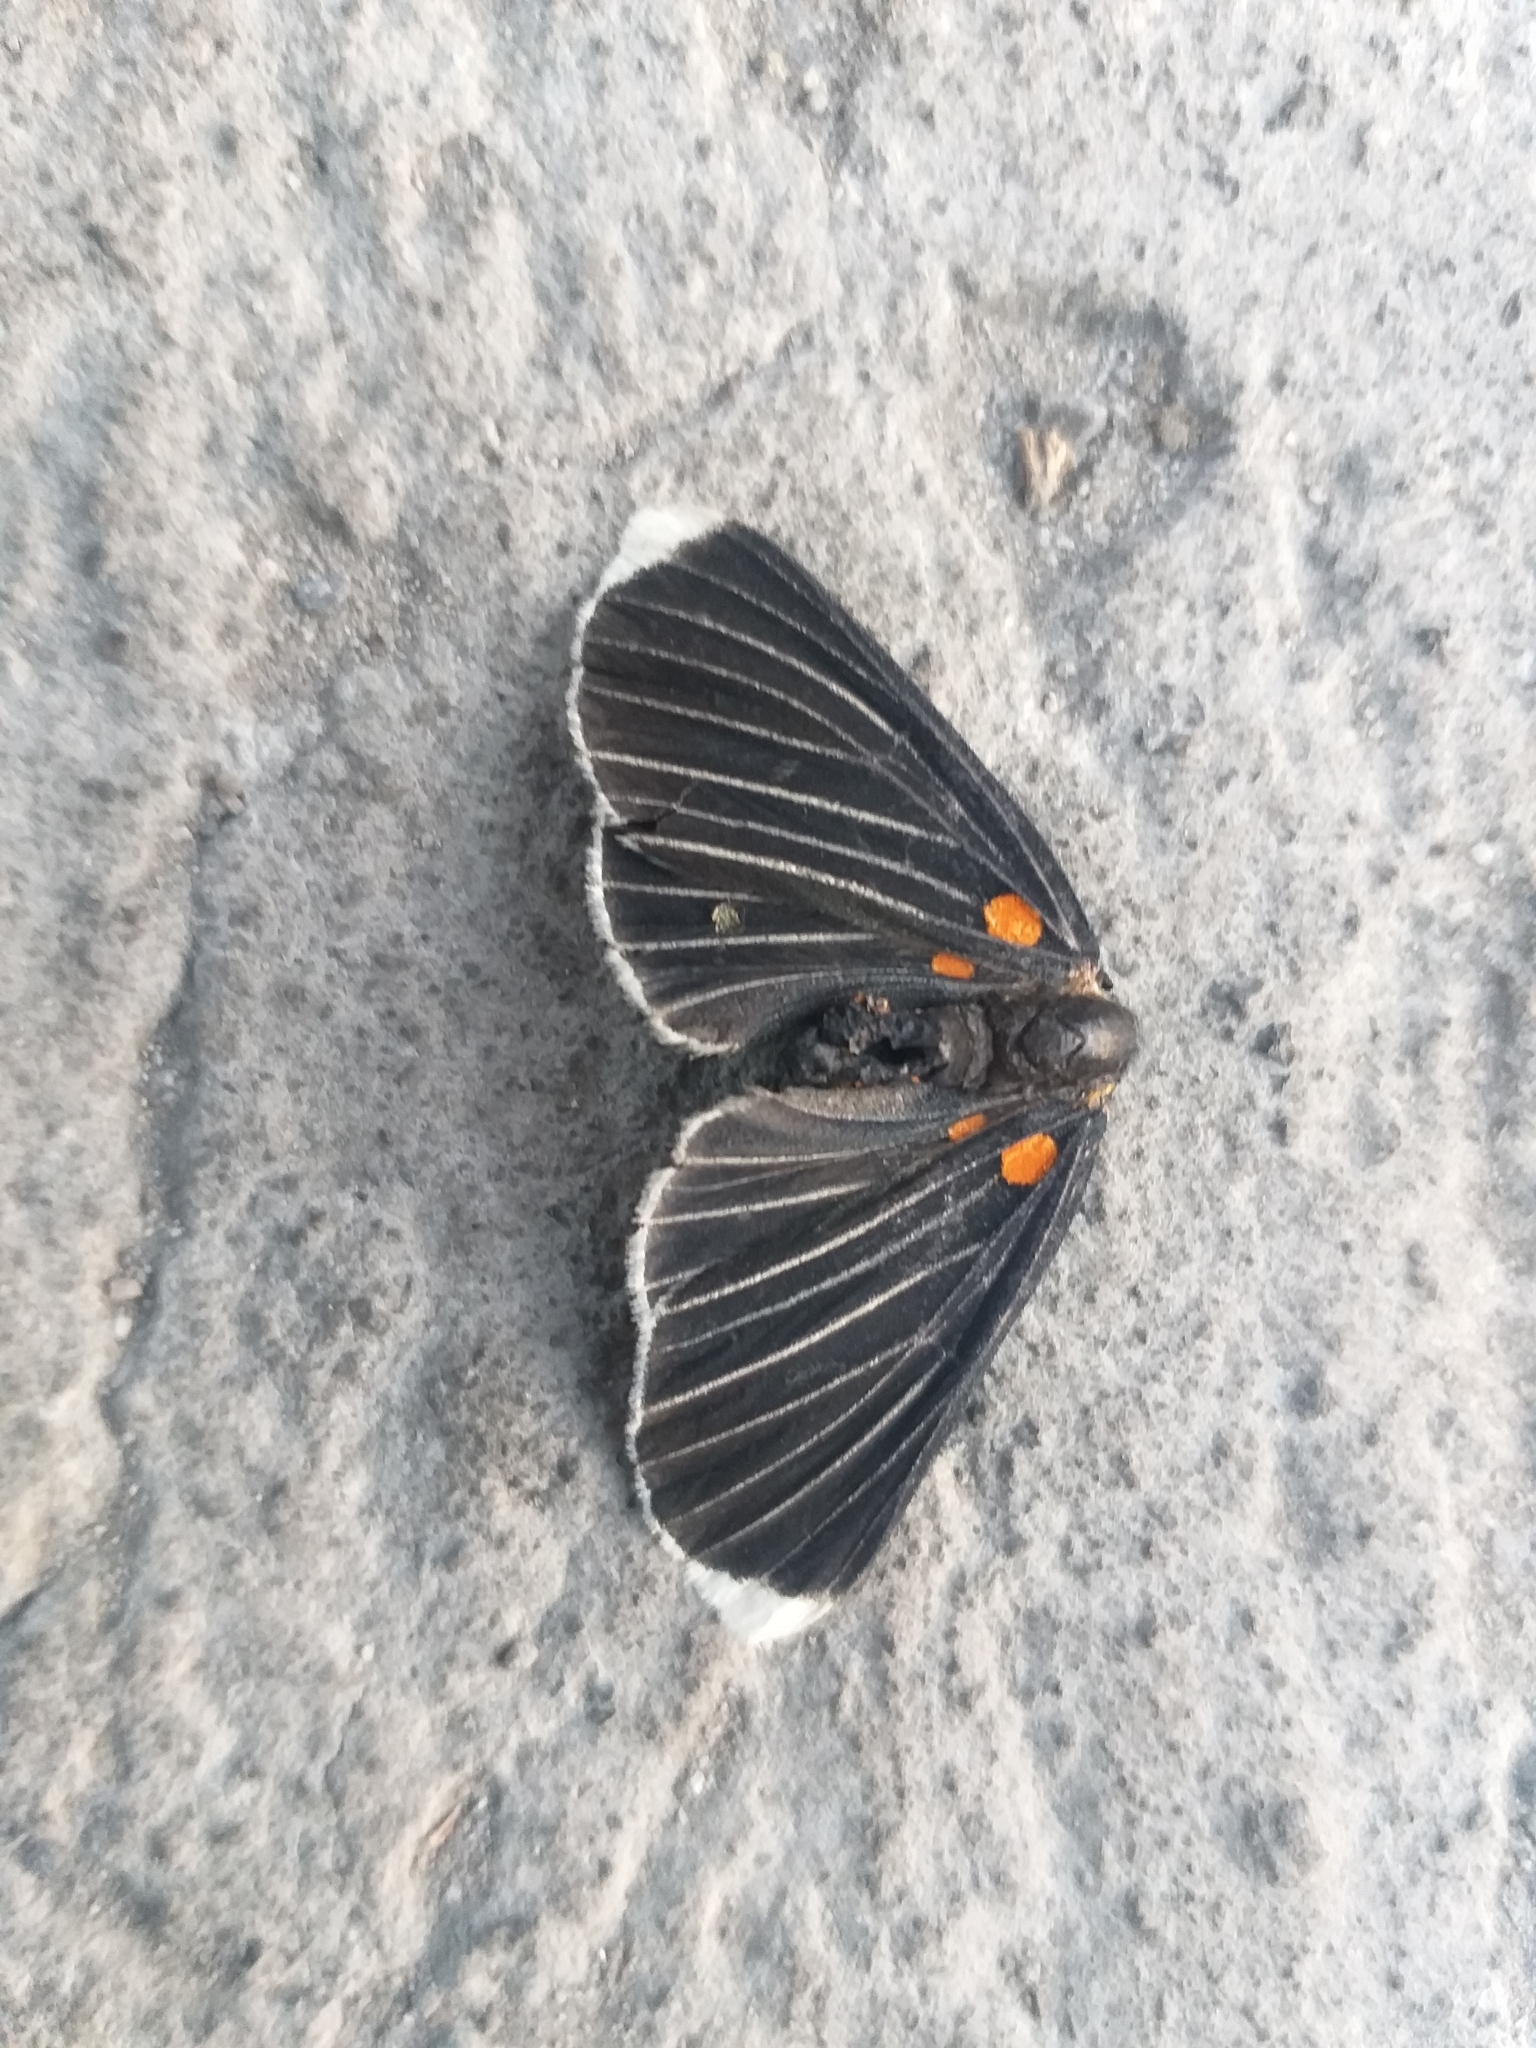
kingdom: Animalia
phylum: Arthropoda
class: Insecta
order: Lepidoptera
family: Lycaenidae
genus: Melanis
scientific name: Melanis
